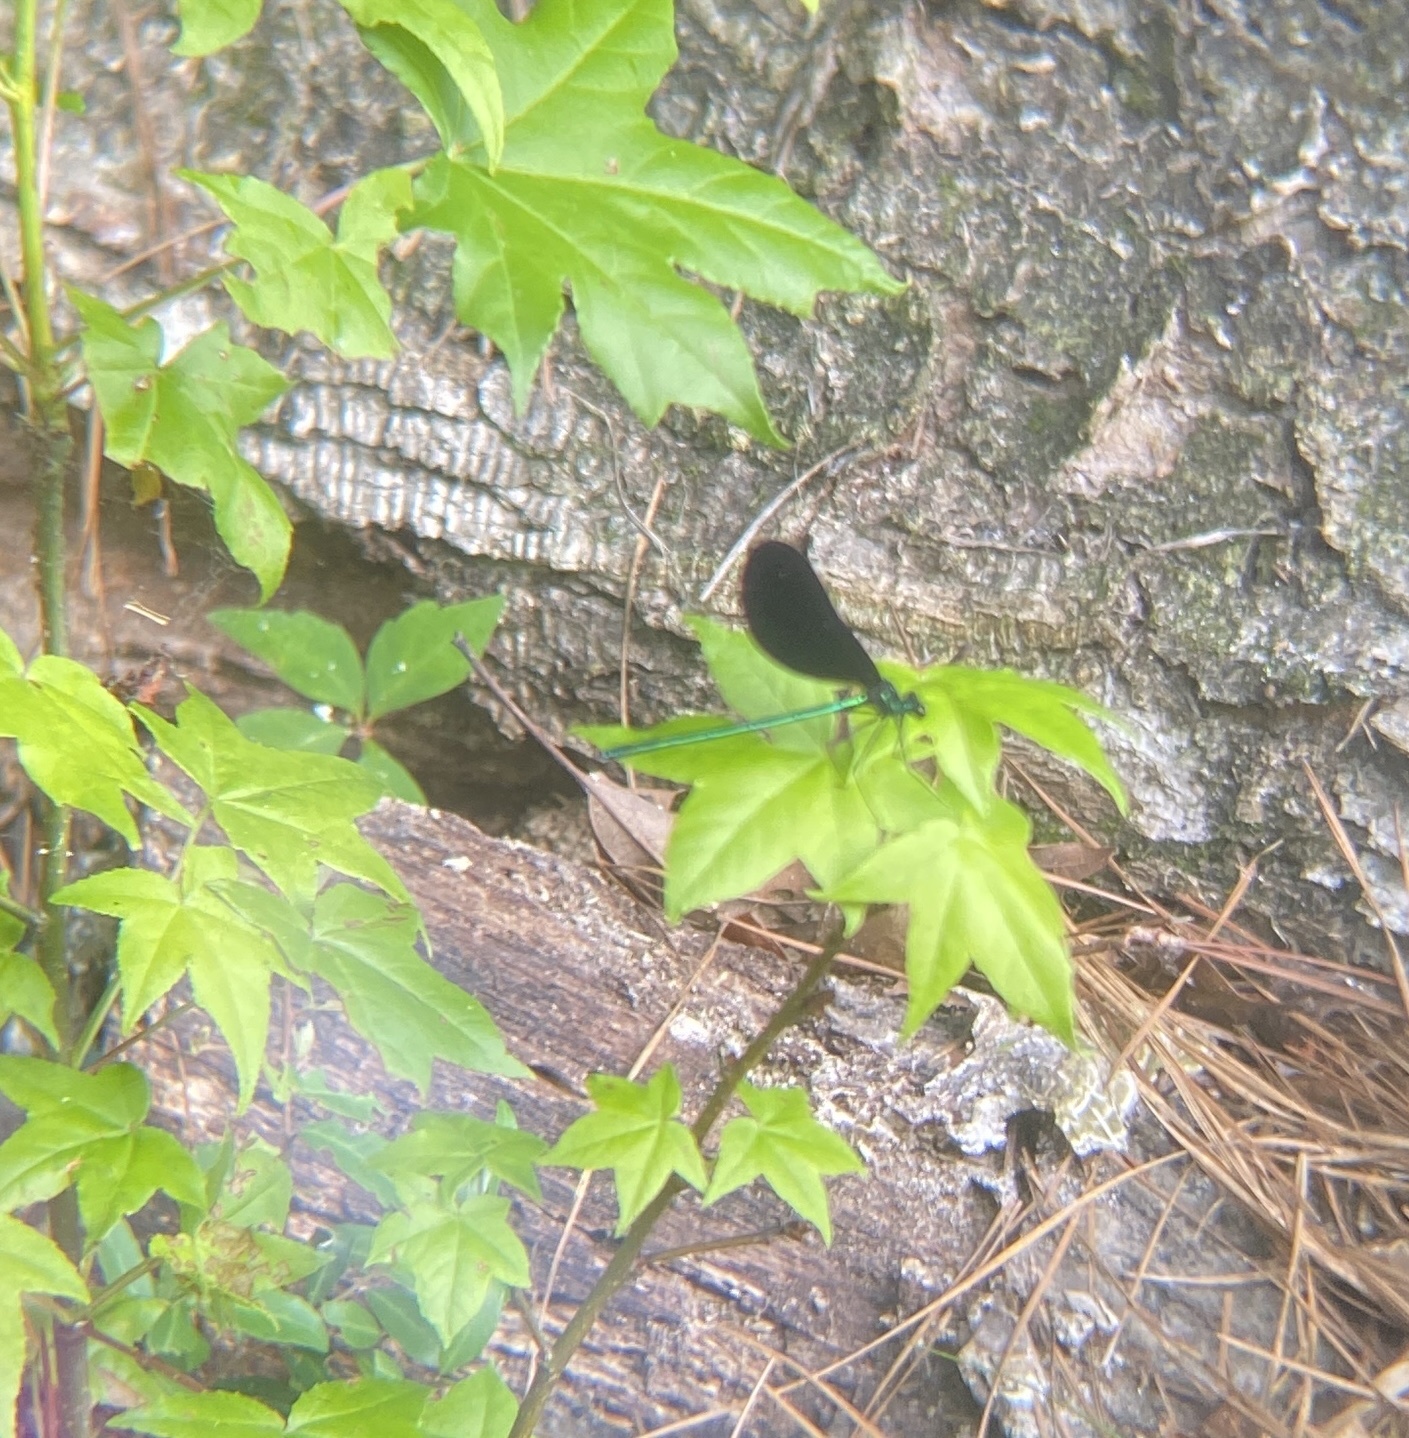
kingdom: Animalia
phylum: Arthropoda
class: Insecta
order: Odonata
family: Calopterygidae
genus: Calopteryx
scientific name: Calopteryx maculata
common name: Ebony jewelwing
